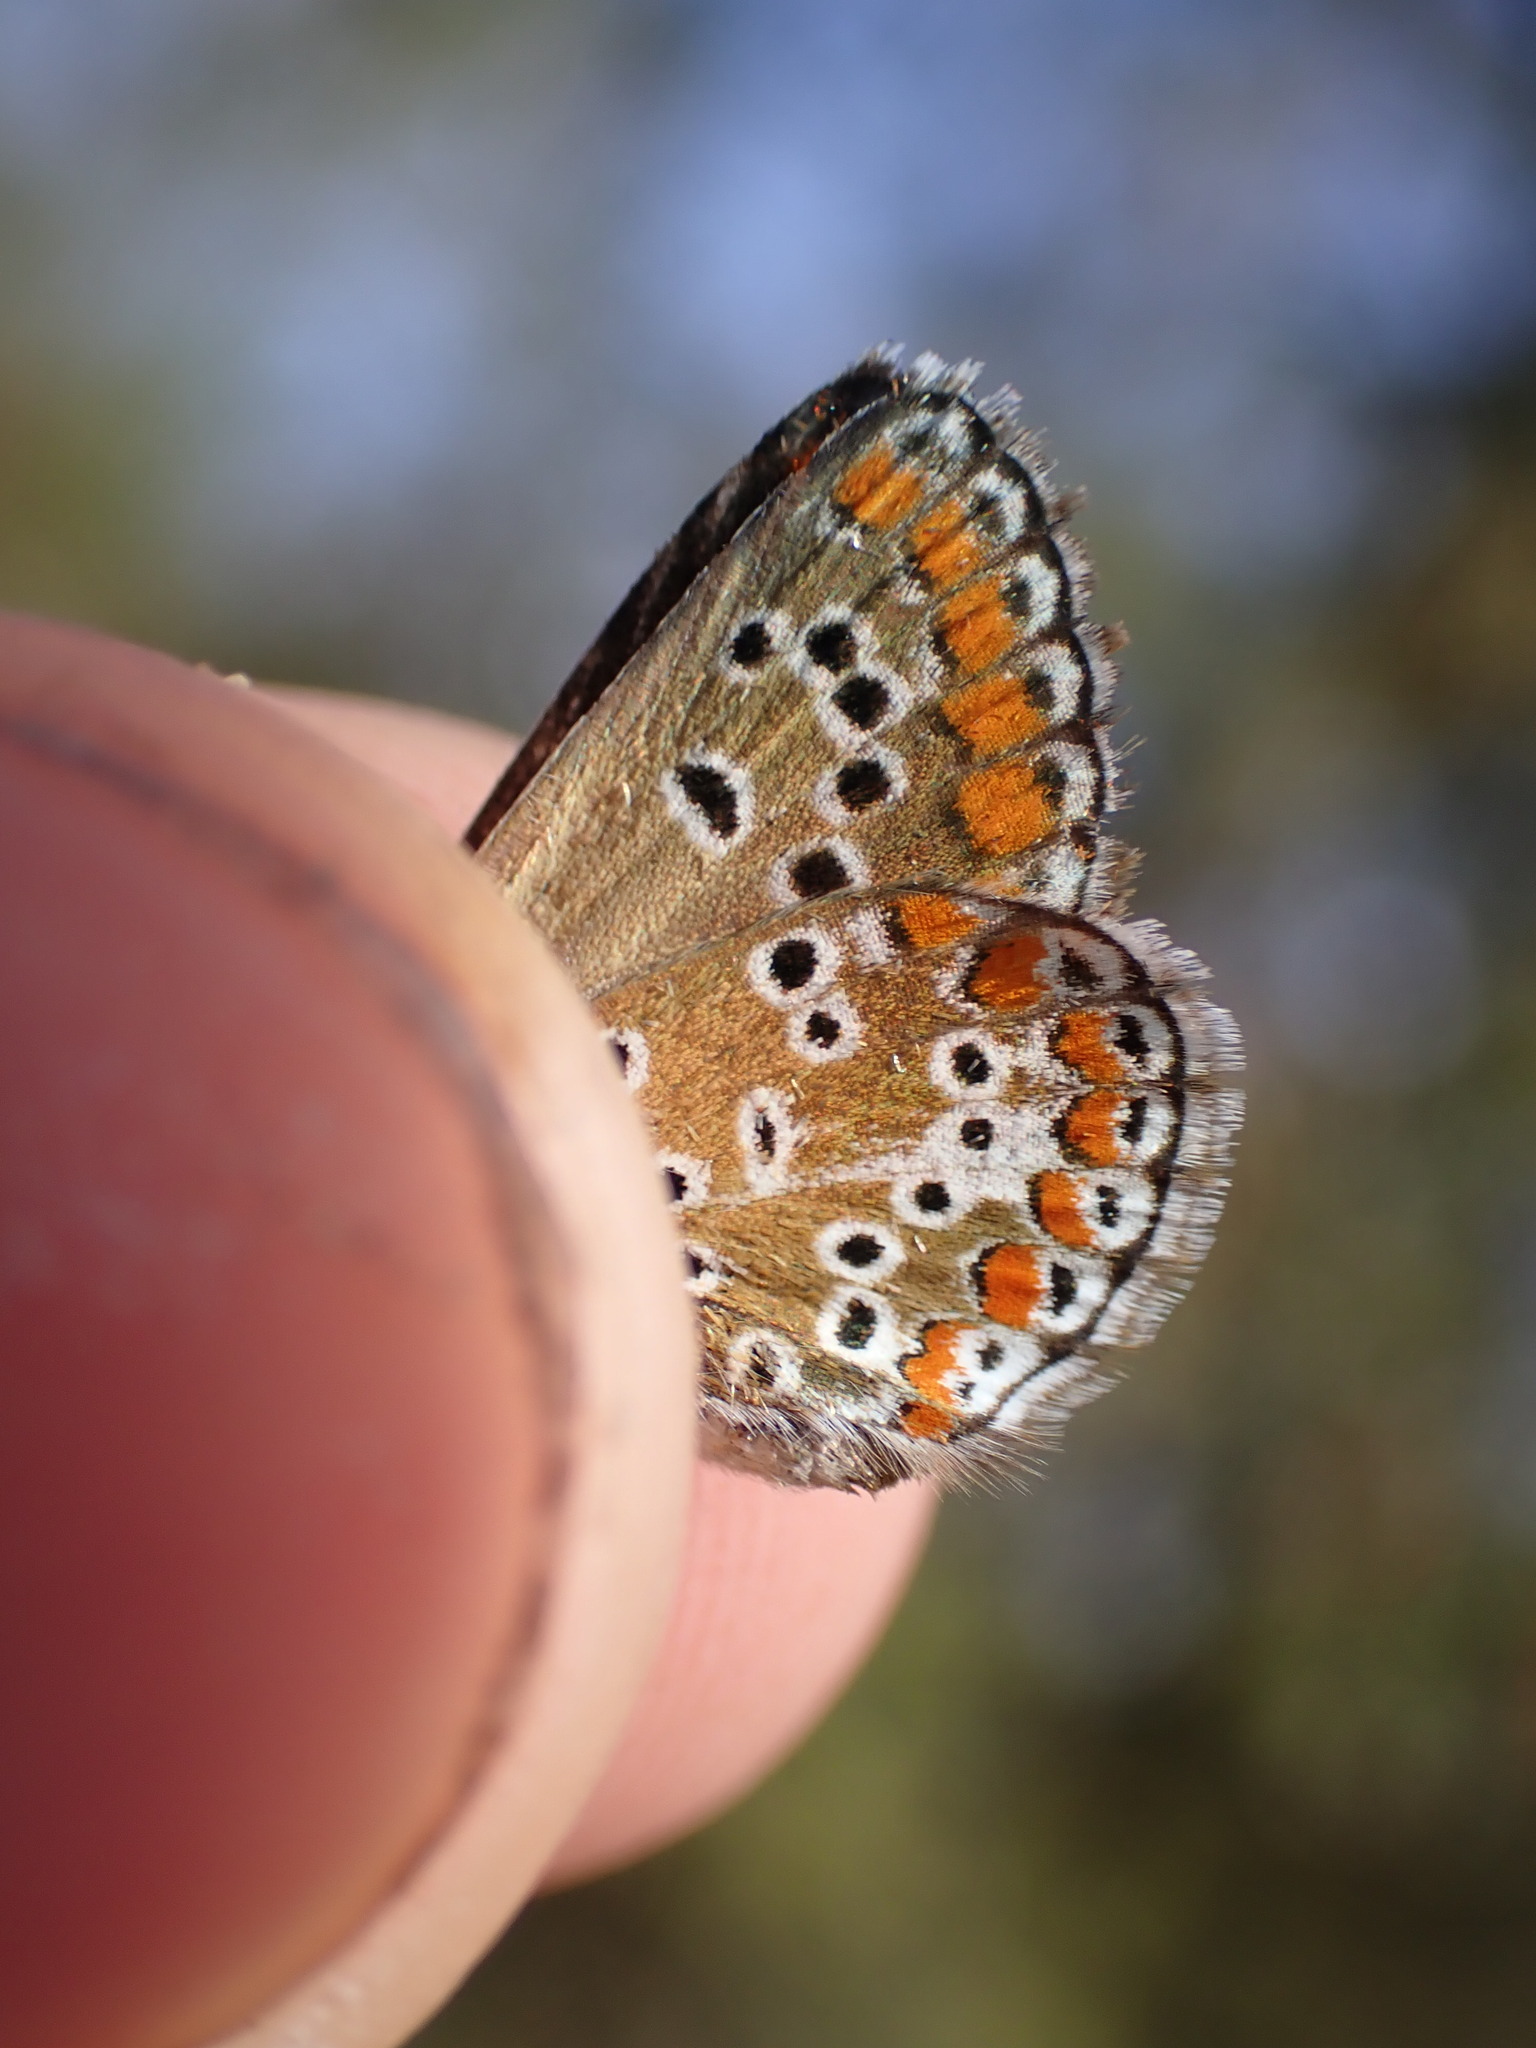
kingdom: Animalia
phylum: Arthropoda
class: Insecta
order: Lepidoptera
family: Lycaenidae
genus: Aricia
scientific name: Aricia agestis
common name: Brown argus
